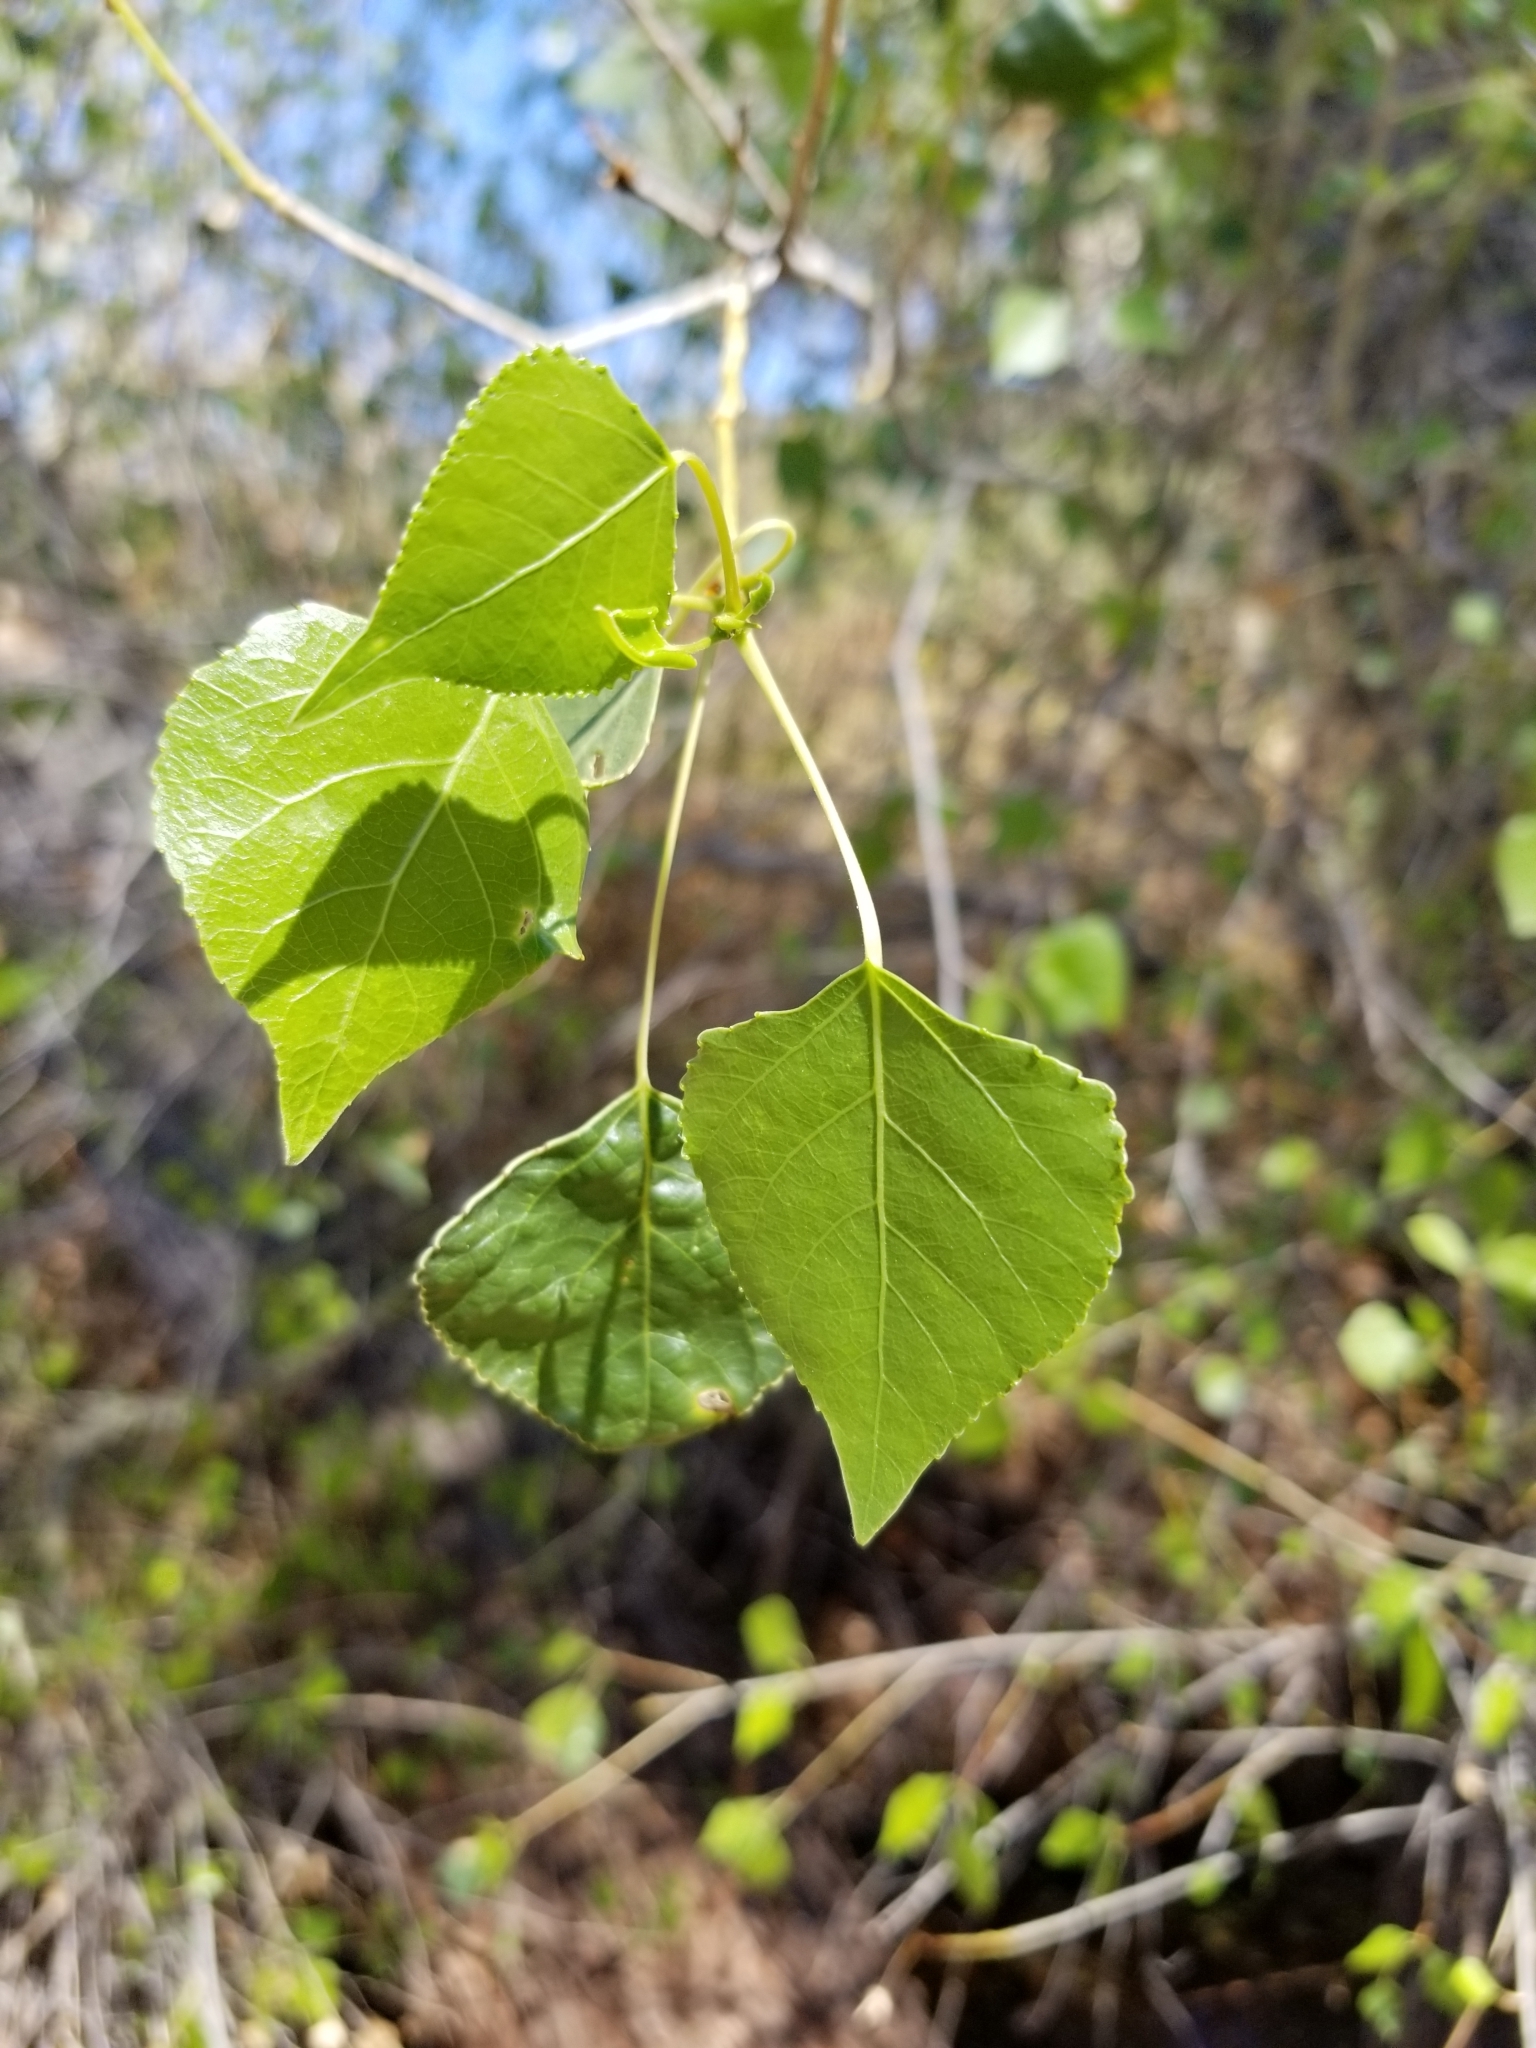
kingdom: Plantae
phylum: Tracheophyta
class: Magnoliopsida
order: Malpighiales
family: Salicaceae
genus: Populus
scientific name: Populus fremontii
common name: Fremont's cottonwood
